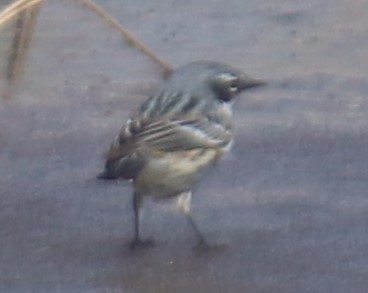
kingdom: Animalia
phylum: Chordata
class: Aves
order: Passeriformes
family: Parulidae
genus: Setophaga
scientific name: Setophaga coronata
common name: Myrtle warbler
